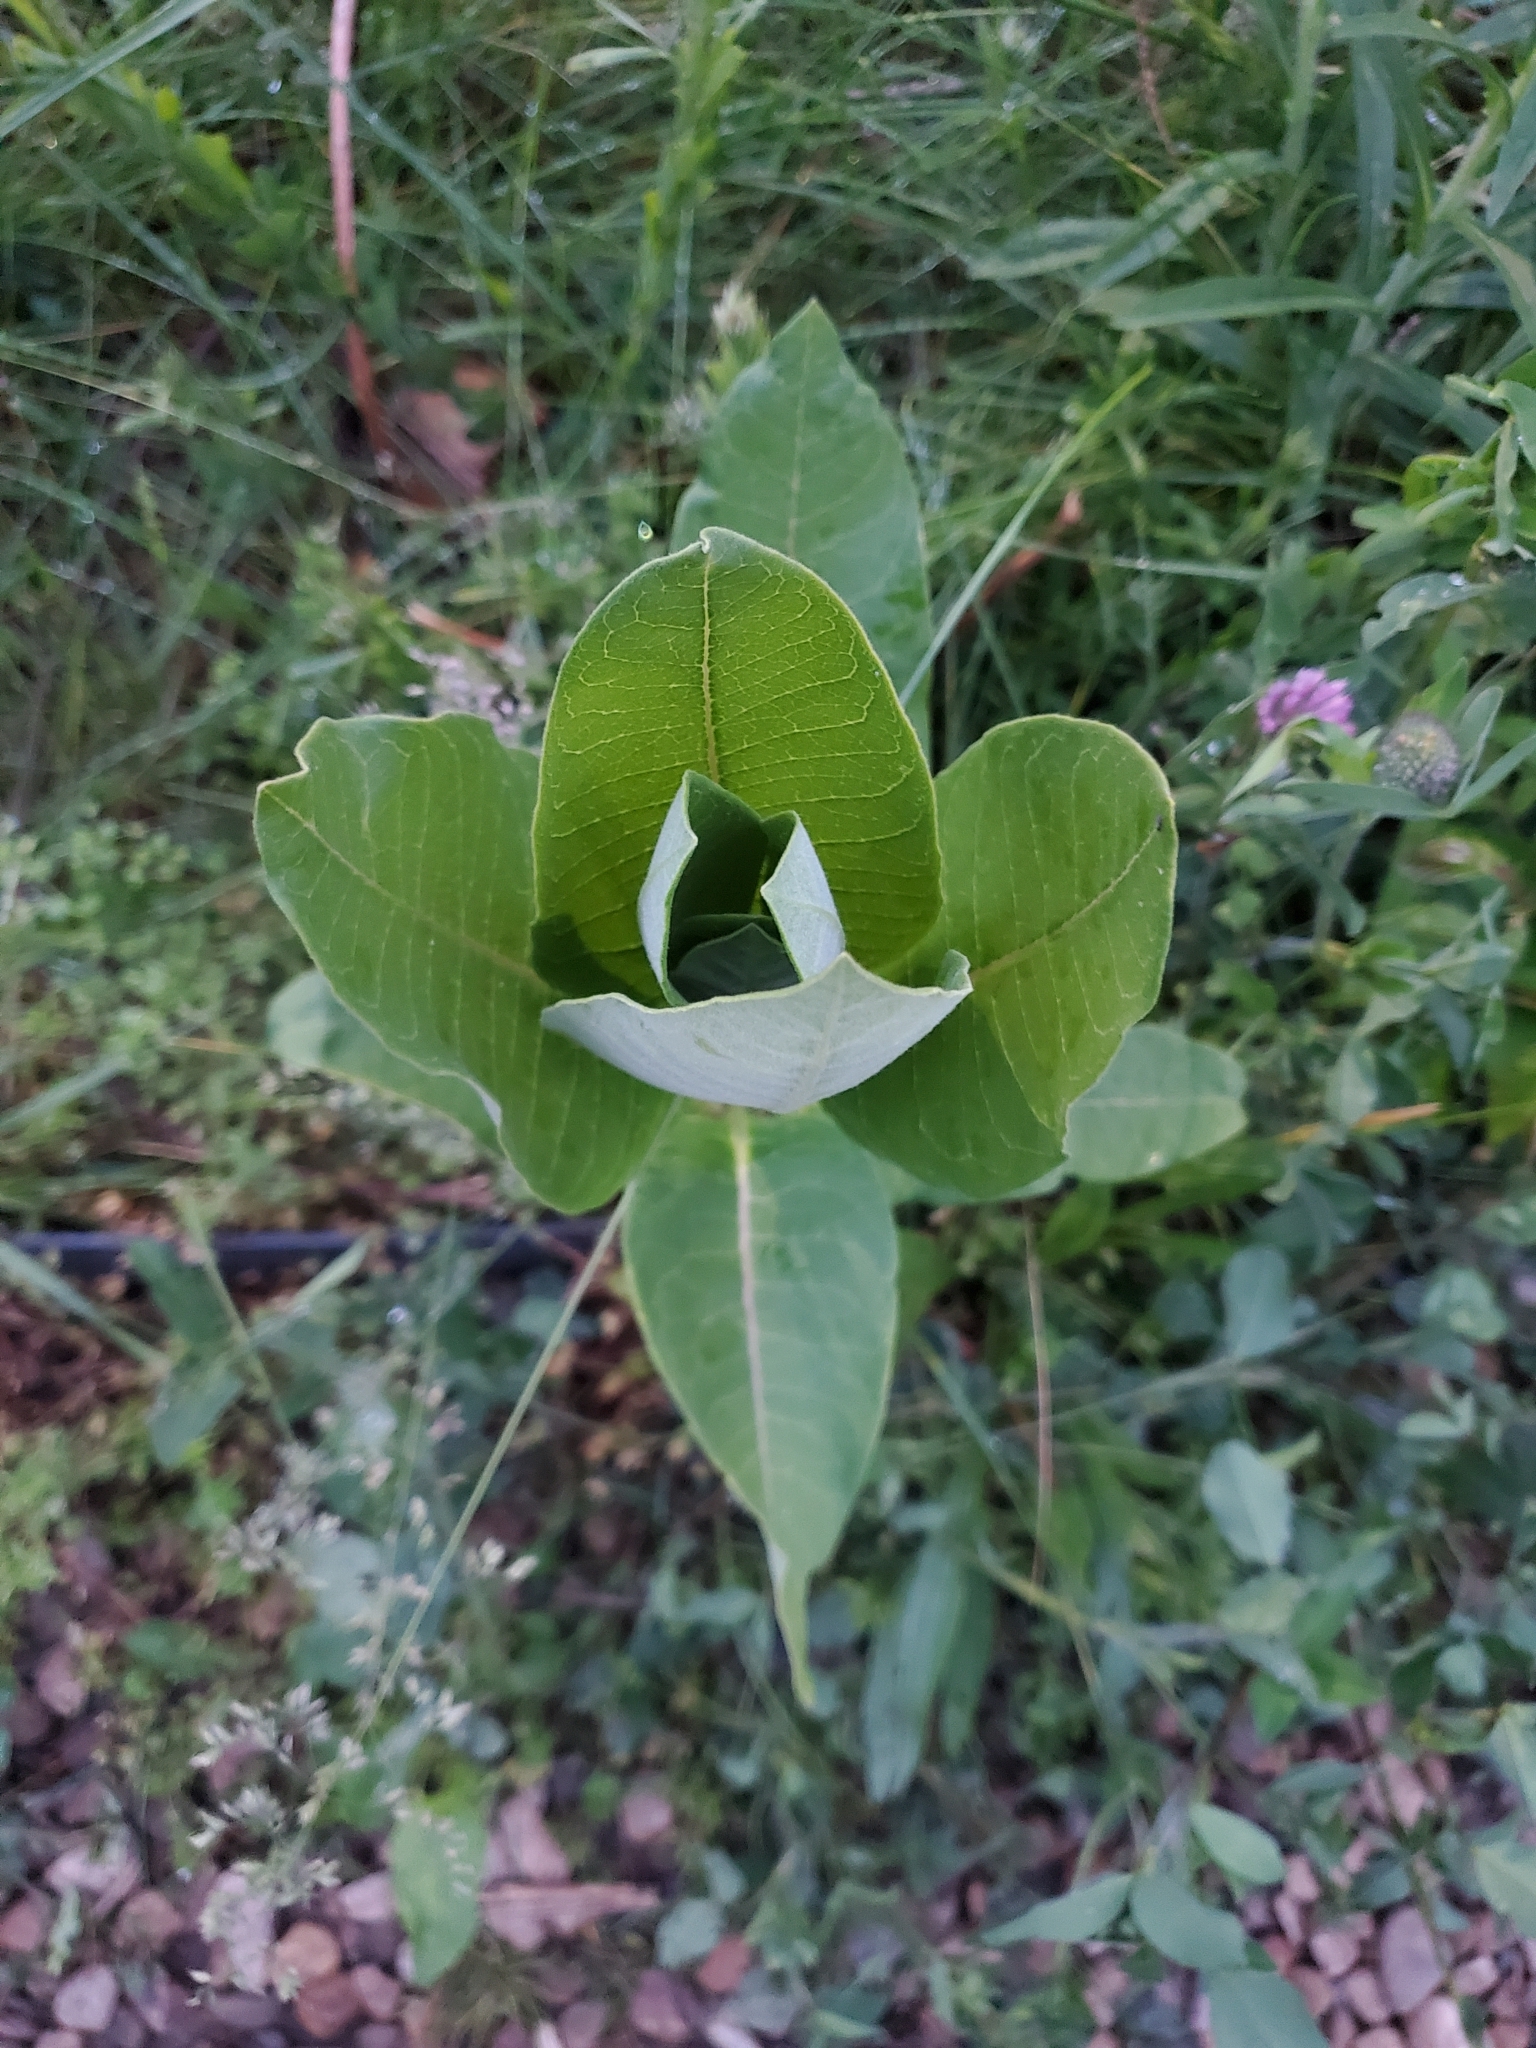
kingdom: Plantae
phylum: Tracheophyta
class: Magnoliopsida
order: Gentianales
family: Apocynaceae
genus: Asclepias
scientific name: Asclepias syriaca
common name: Common milkweed
